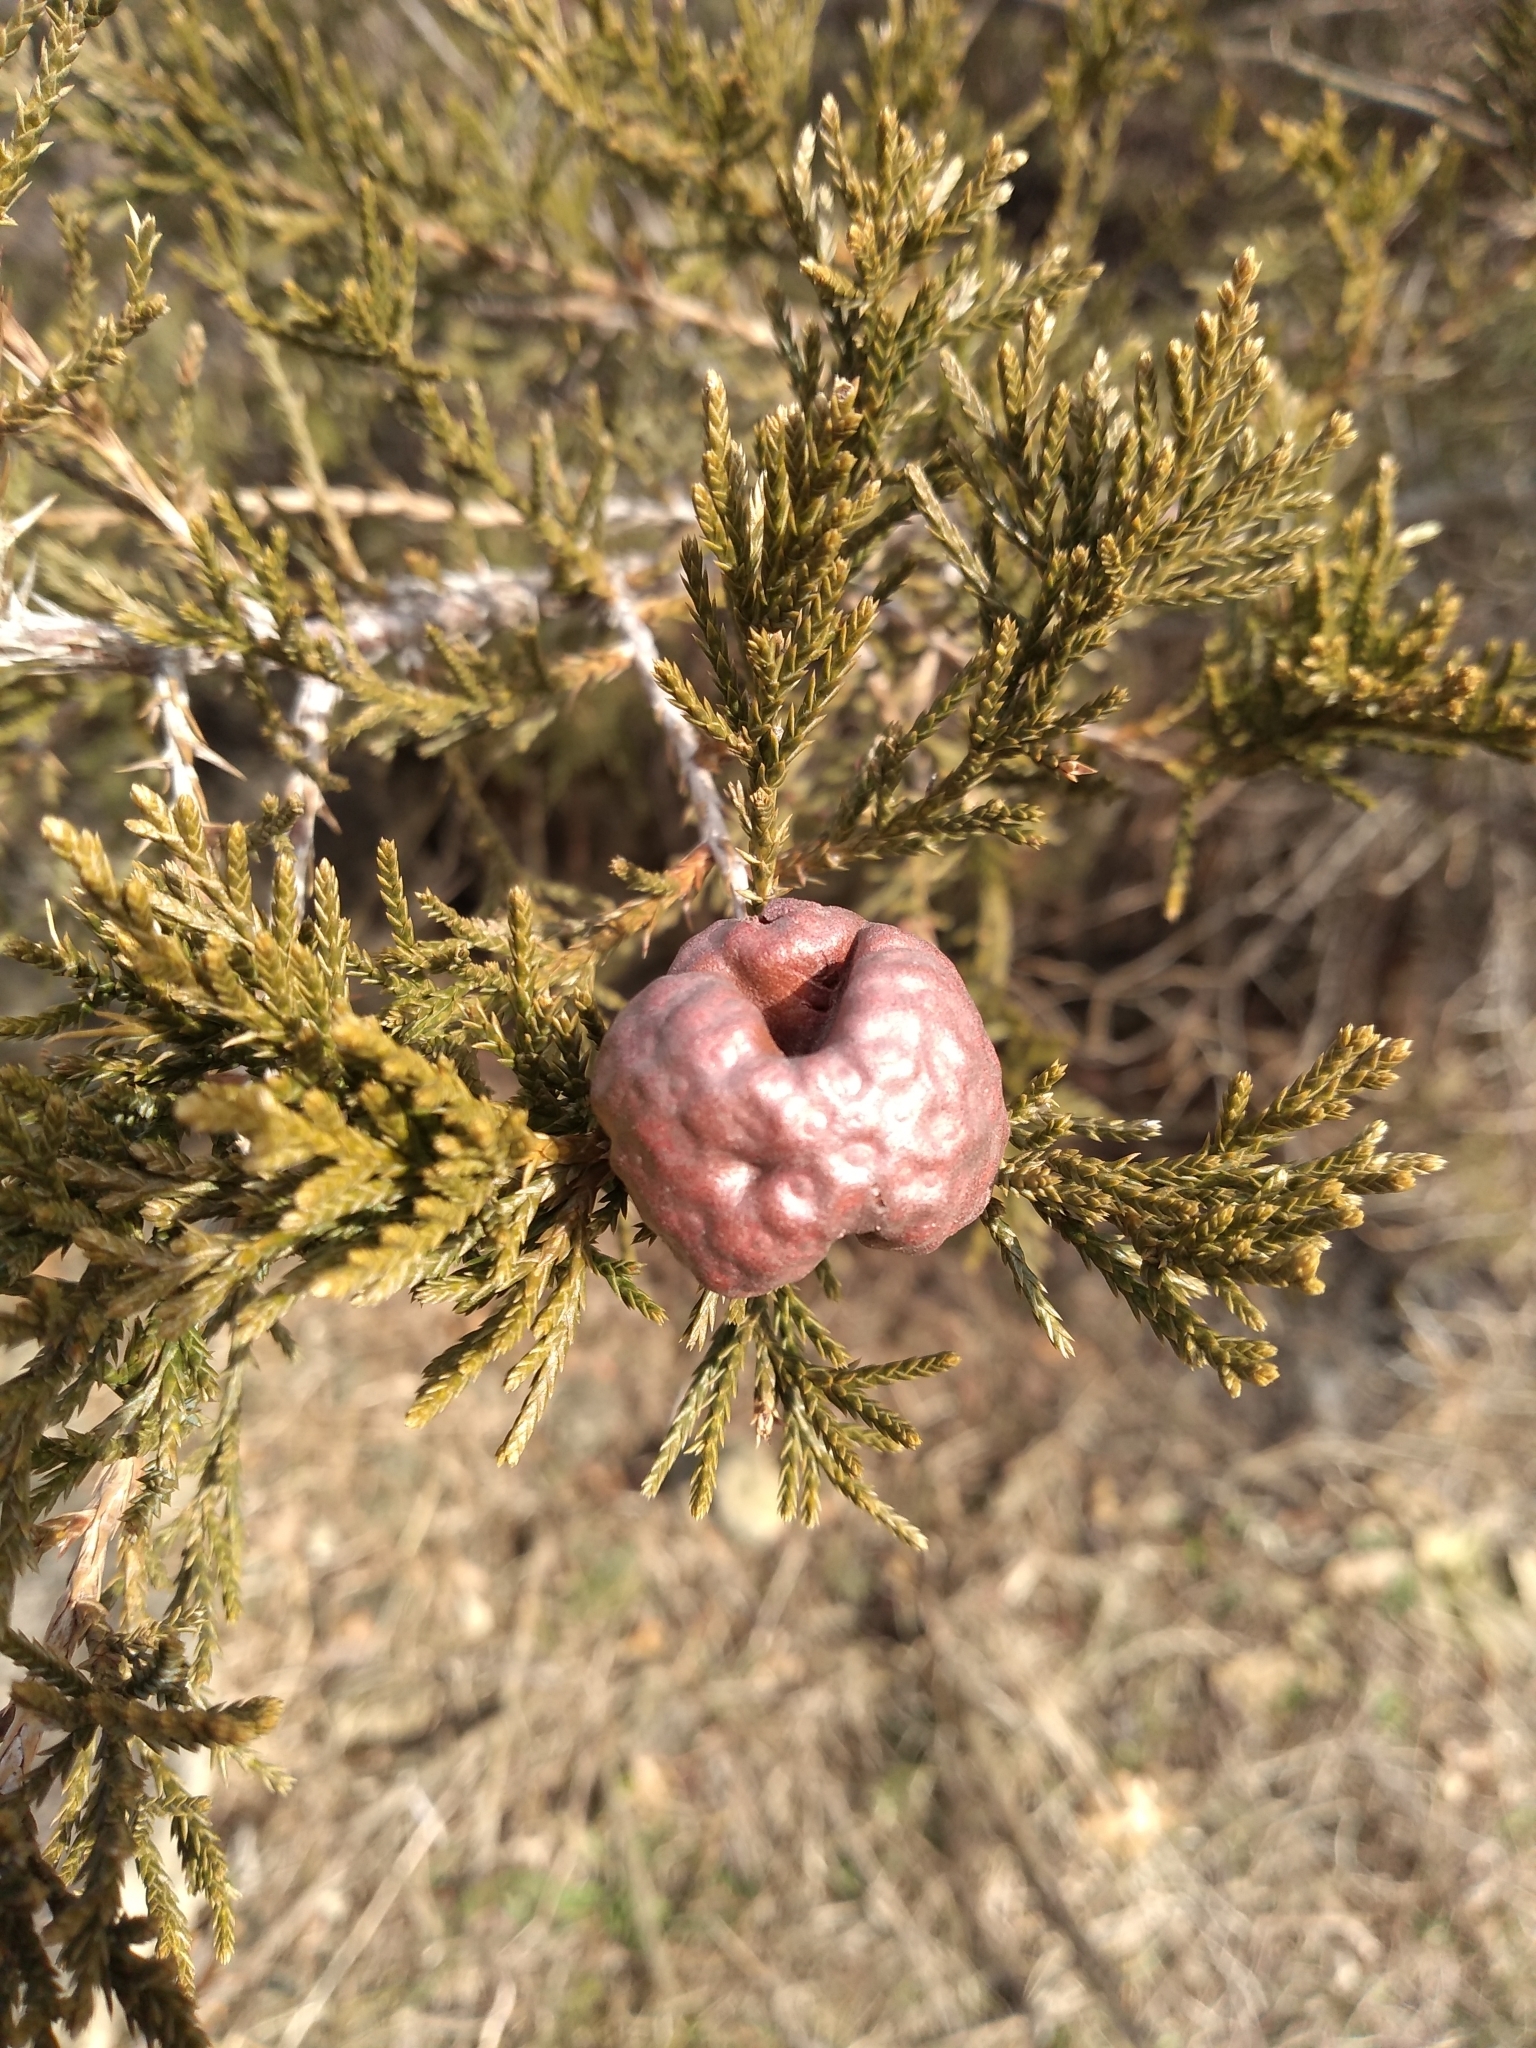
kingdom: Fungi
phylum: Basidiomycota
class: Pucciniomycetes
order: Pucciniales
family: Gymnosporangiaceae
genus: Gymnosporangium
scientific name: Gymnosporangium juniperi-virginianae
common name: Juniper-apple rust
